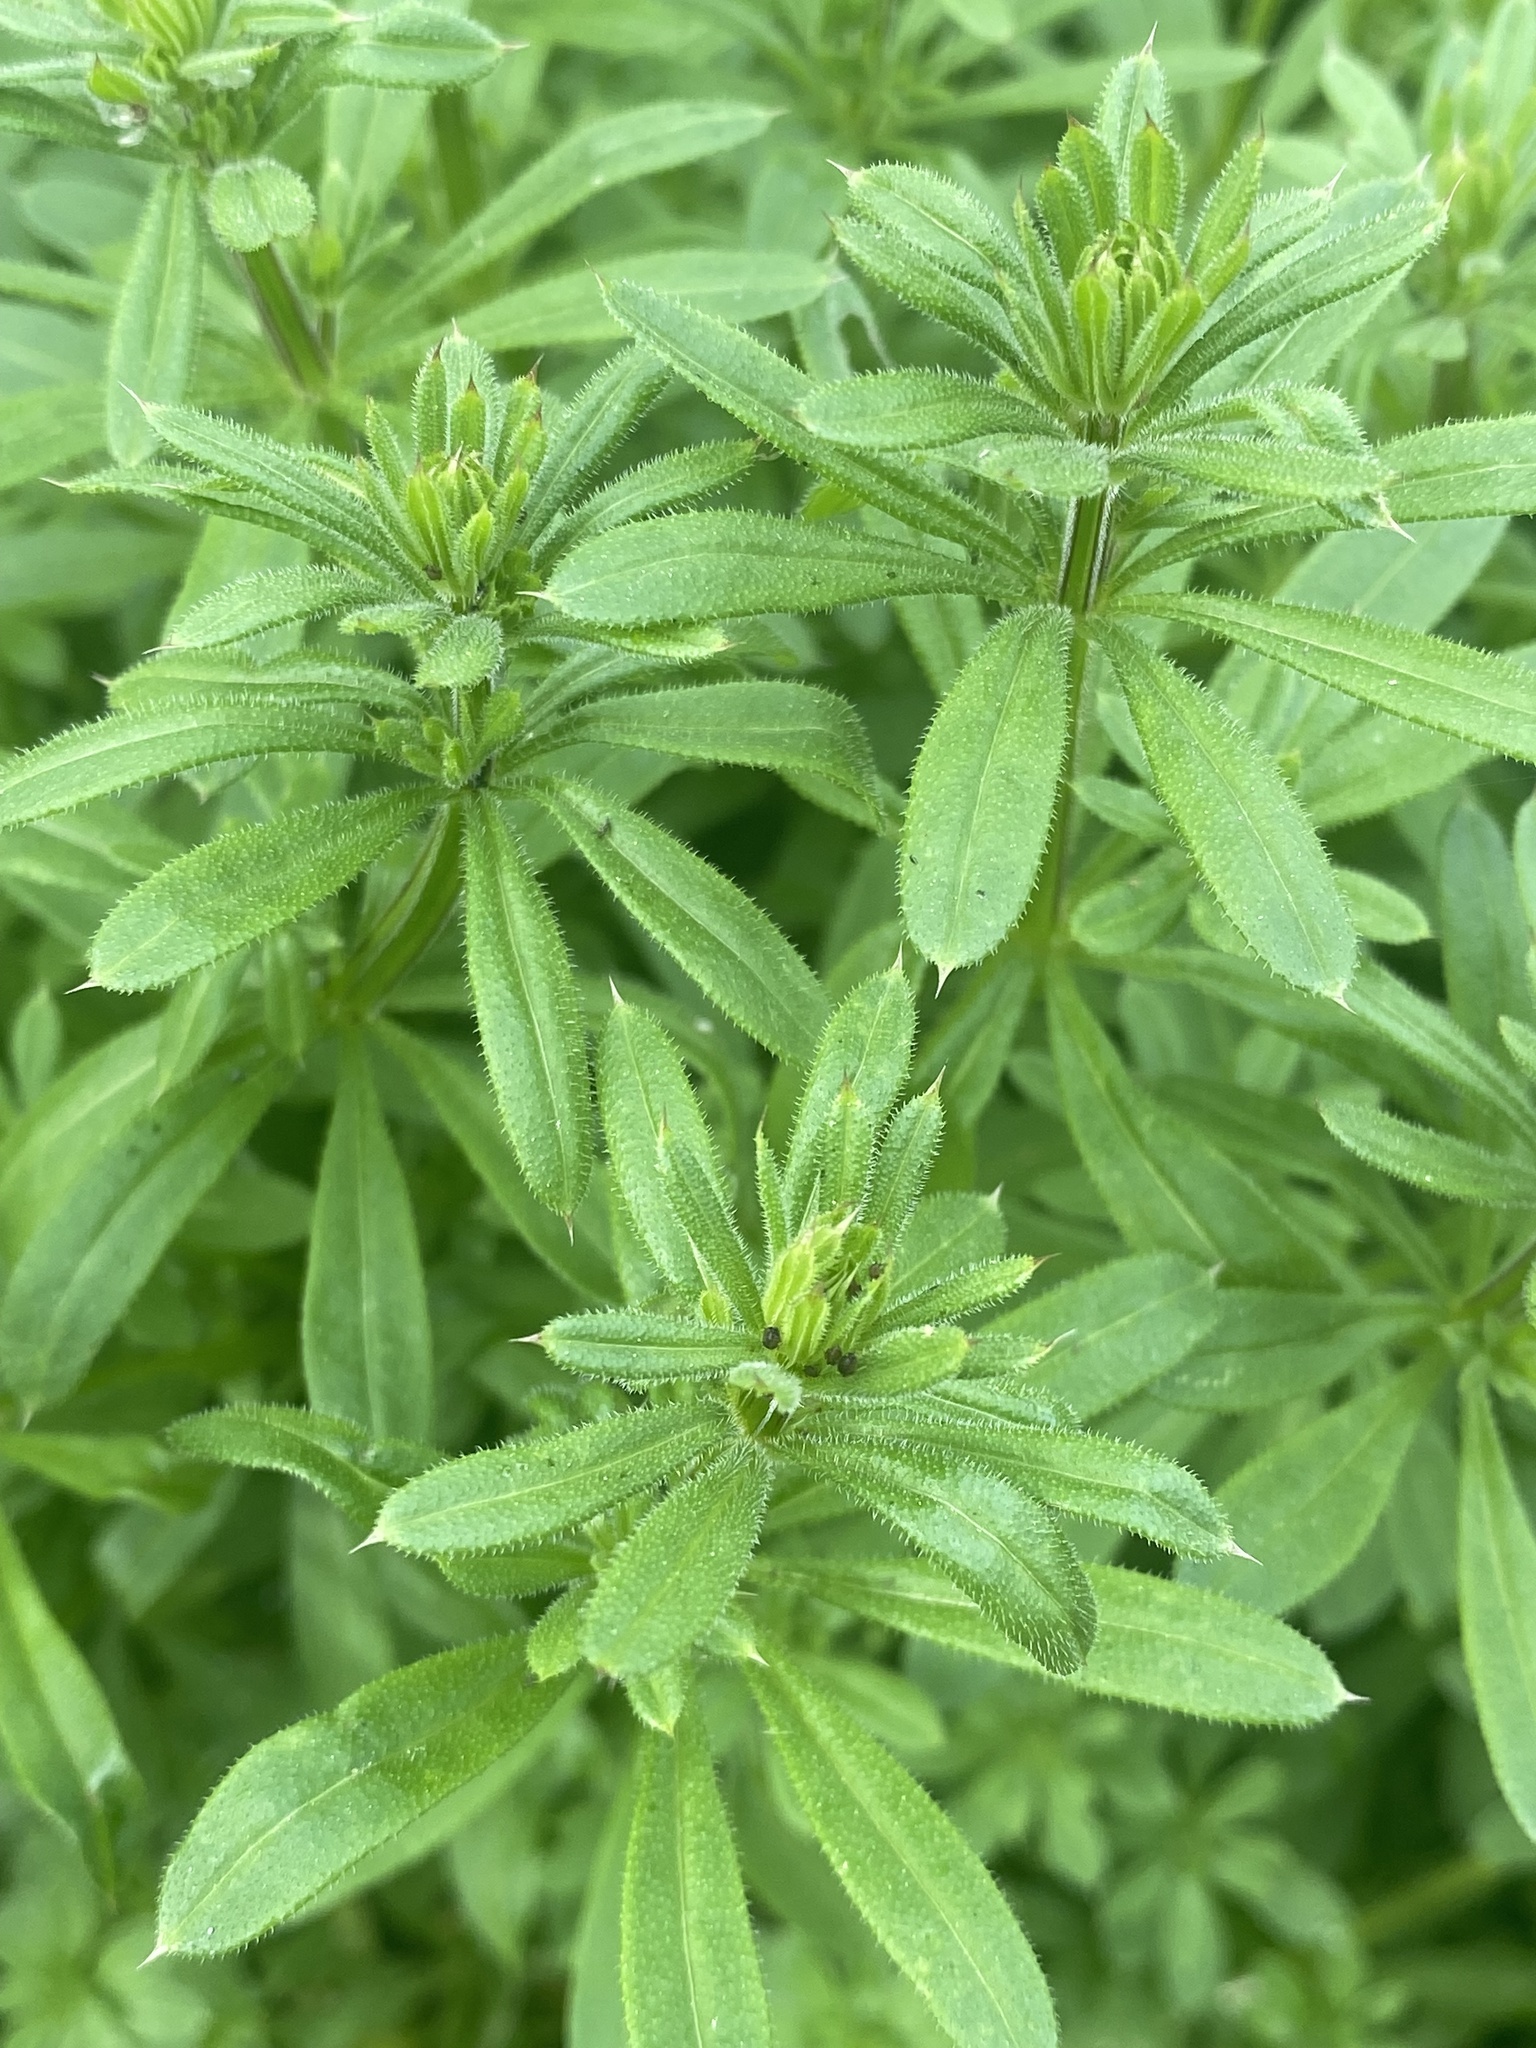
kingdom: Plantae
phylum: Tracheophyta
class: Magnoliopsida
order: Gentianales
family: Rubiaceae
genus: Galium
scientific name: Galium aparine
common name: Cleavers
